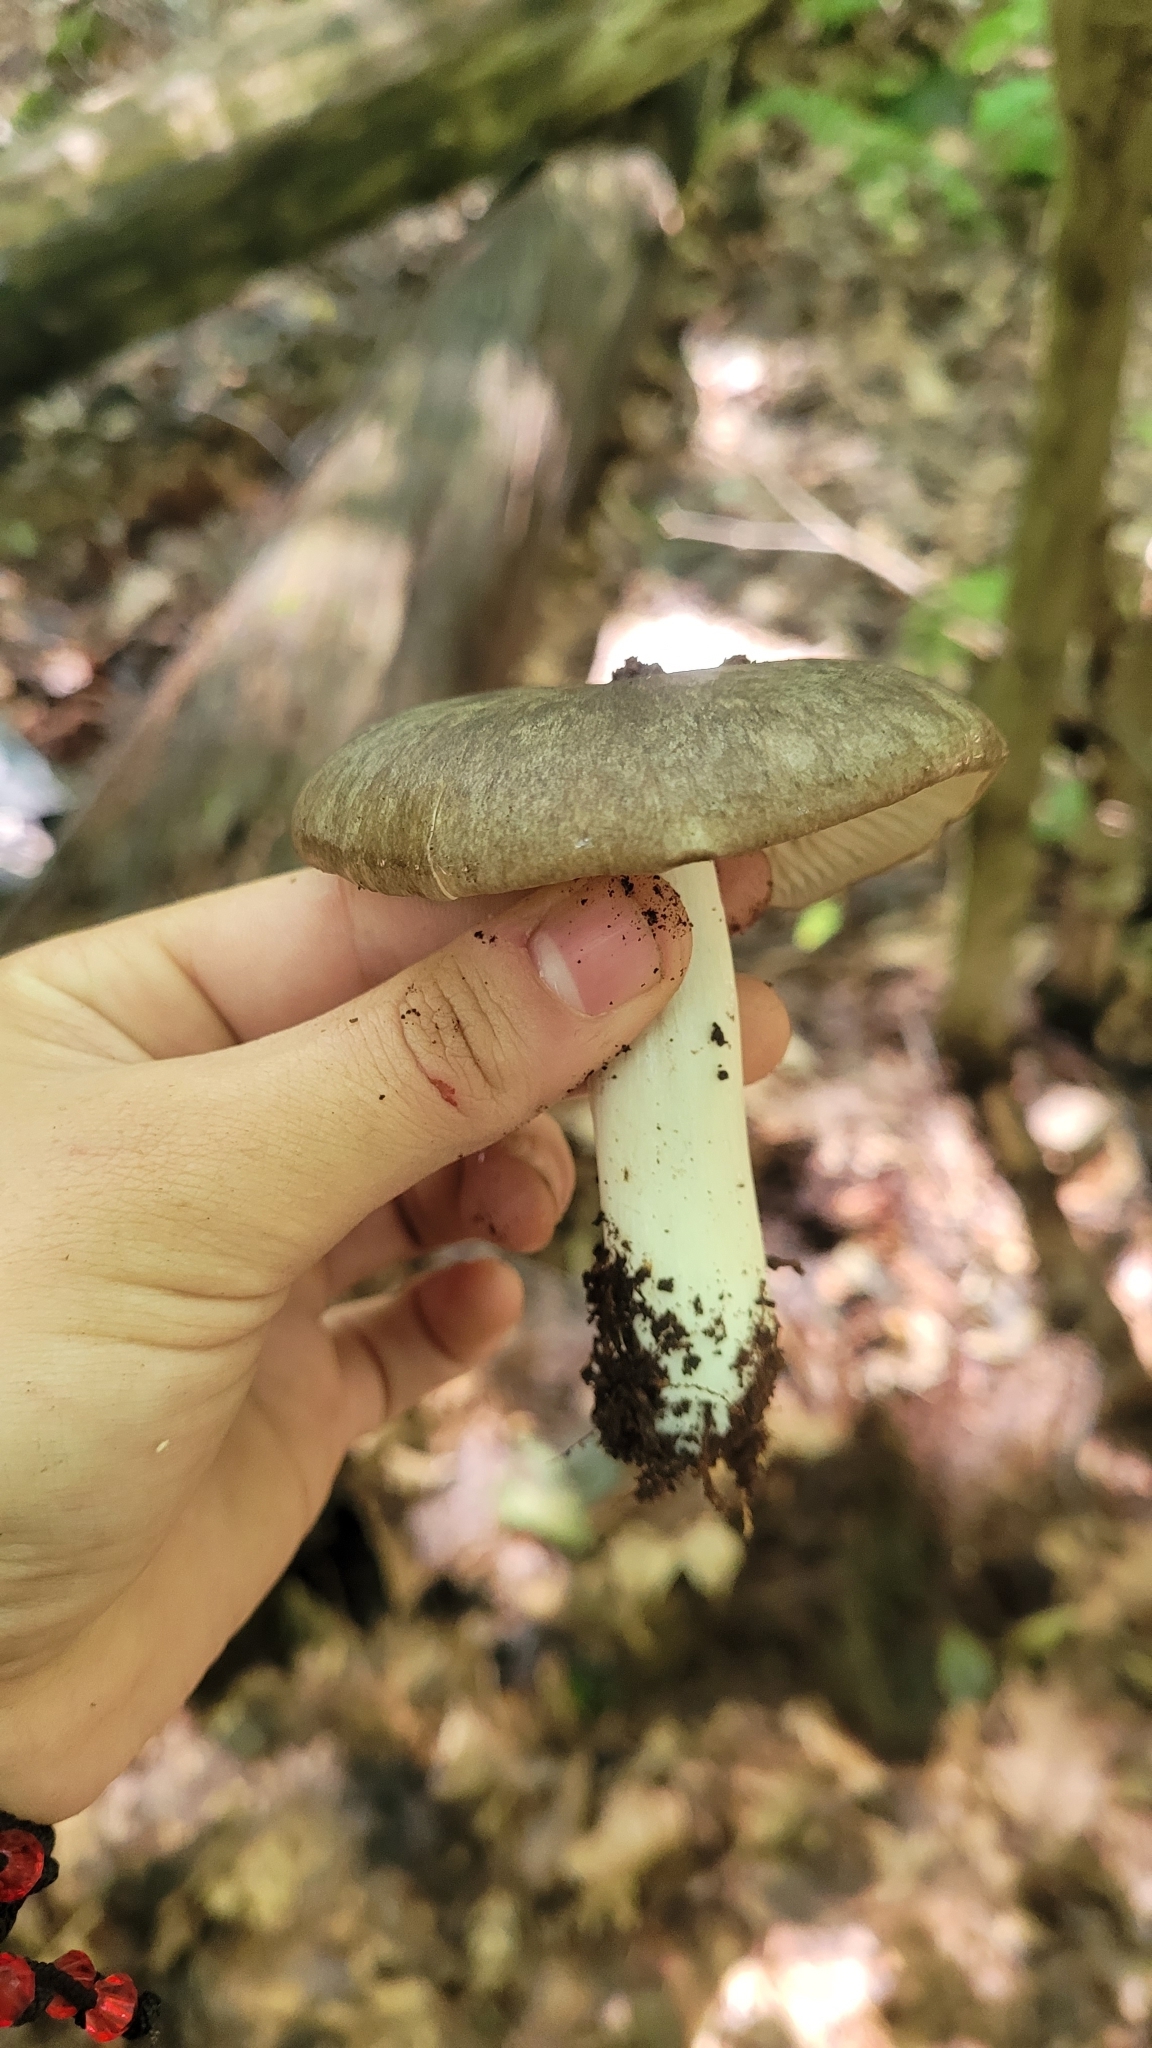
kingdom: Fungi
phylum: Basidiomycota
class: Agaricomycetes
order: Agaricales
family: Tricholomataceae
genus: Megacollybia
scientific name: Megacollybia rodmanii
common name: Eastern american platterful mushroom
